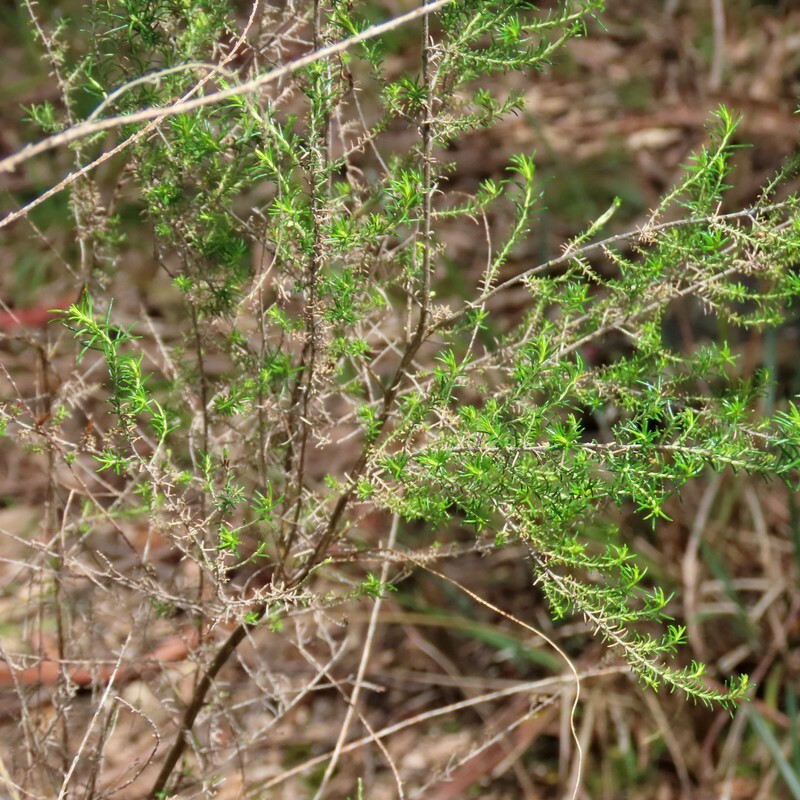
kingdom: Plantae
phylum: Tracheophyta
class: Magnoliopsida
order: Asterales
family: Asteraceae
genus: Cassinia
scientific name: Cassinia sifton
